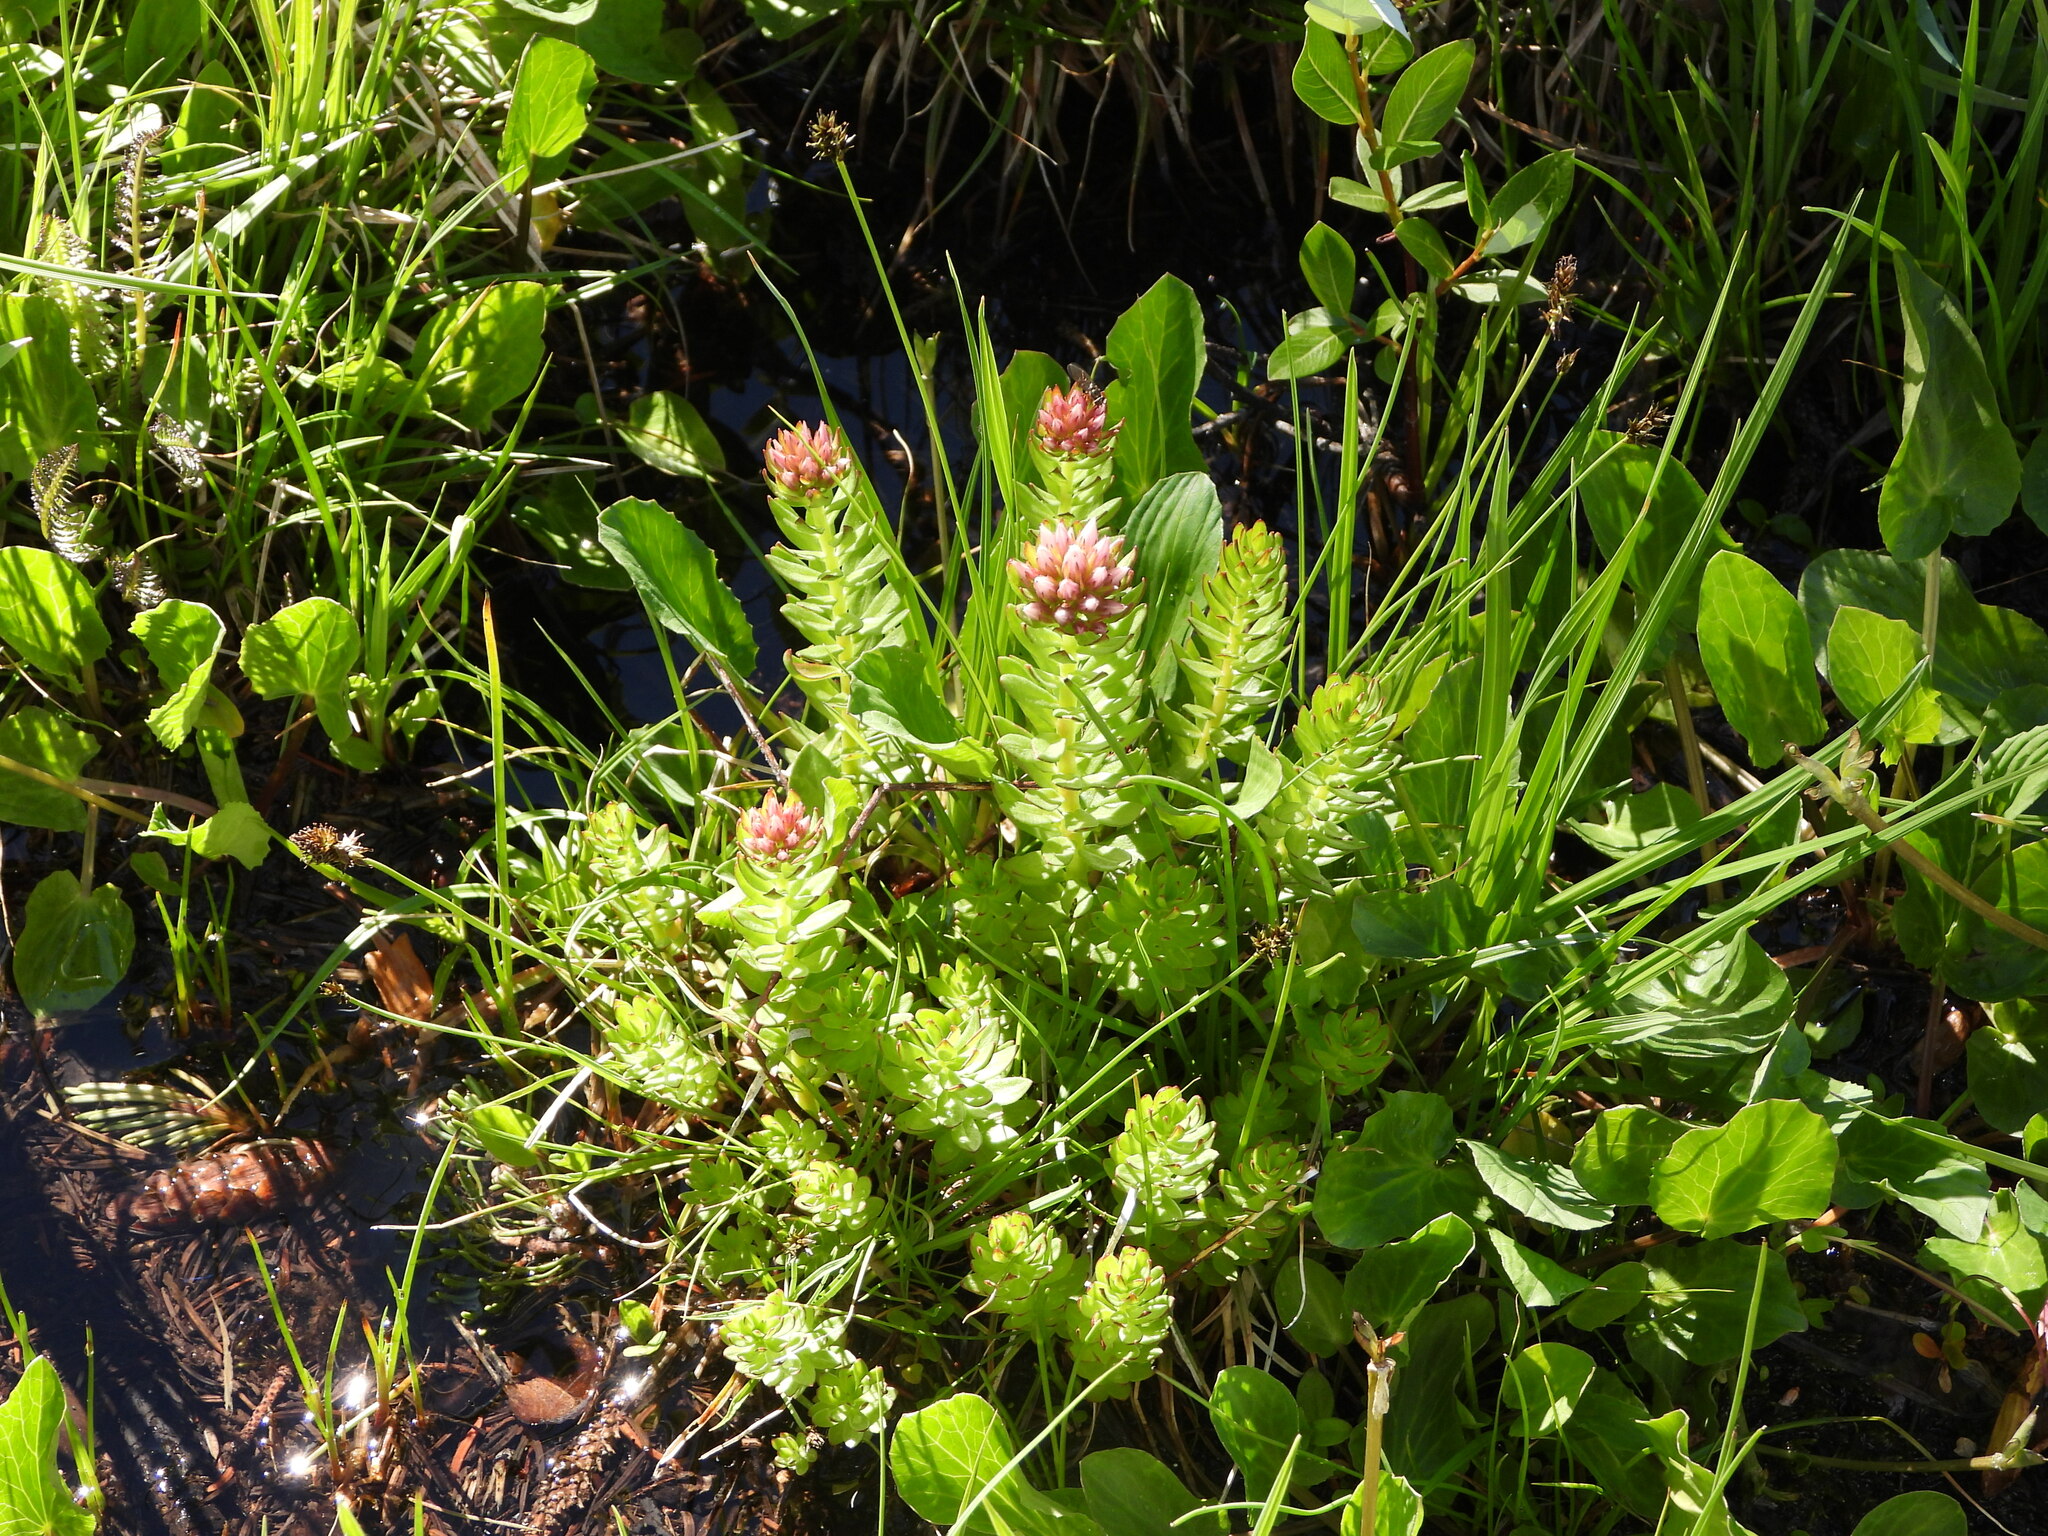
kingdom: Plantae
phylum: Tracheophyta
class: Magnoliopsida
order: Saxifragales
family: Crassulaceae
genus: Rhodiola
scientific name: Rhodiola rhodantha
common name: Red orpine
